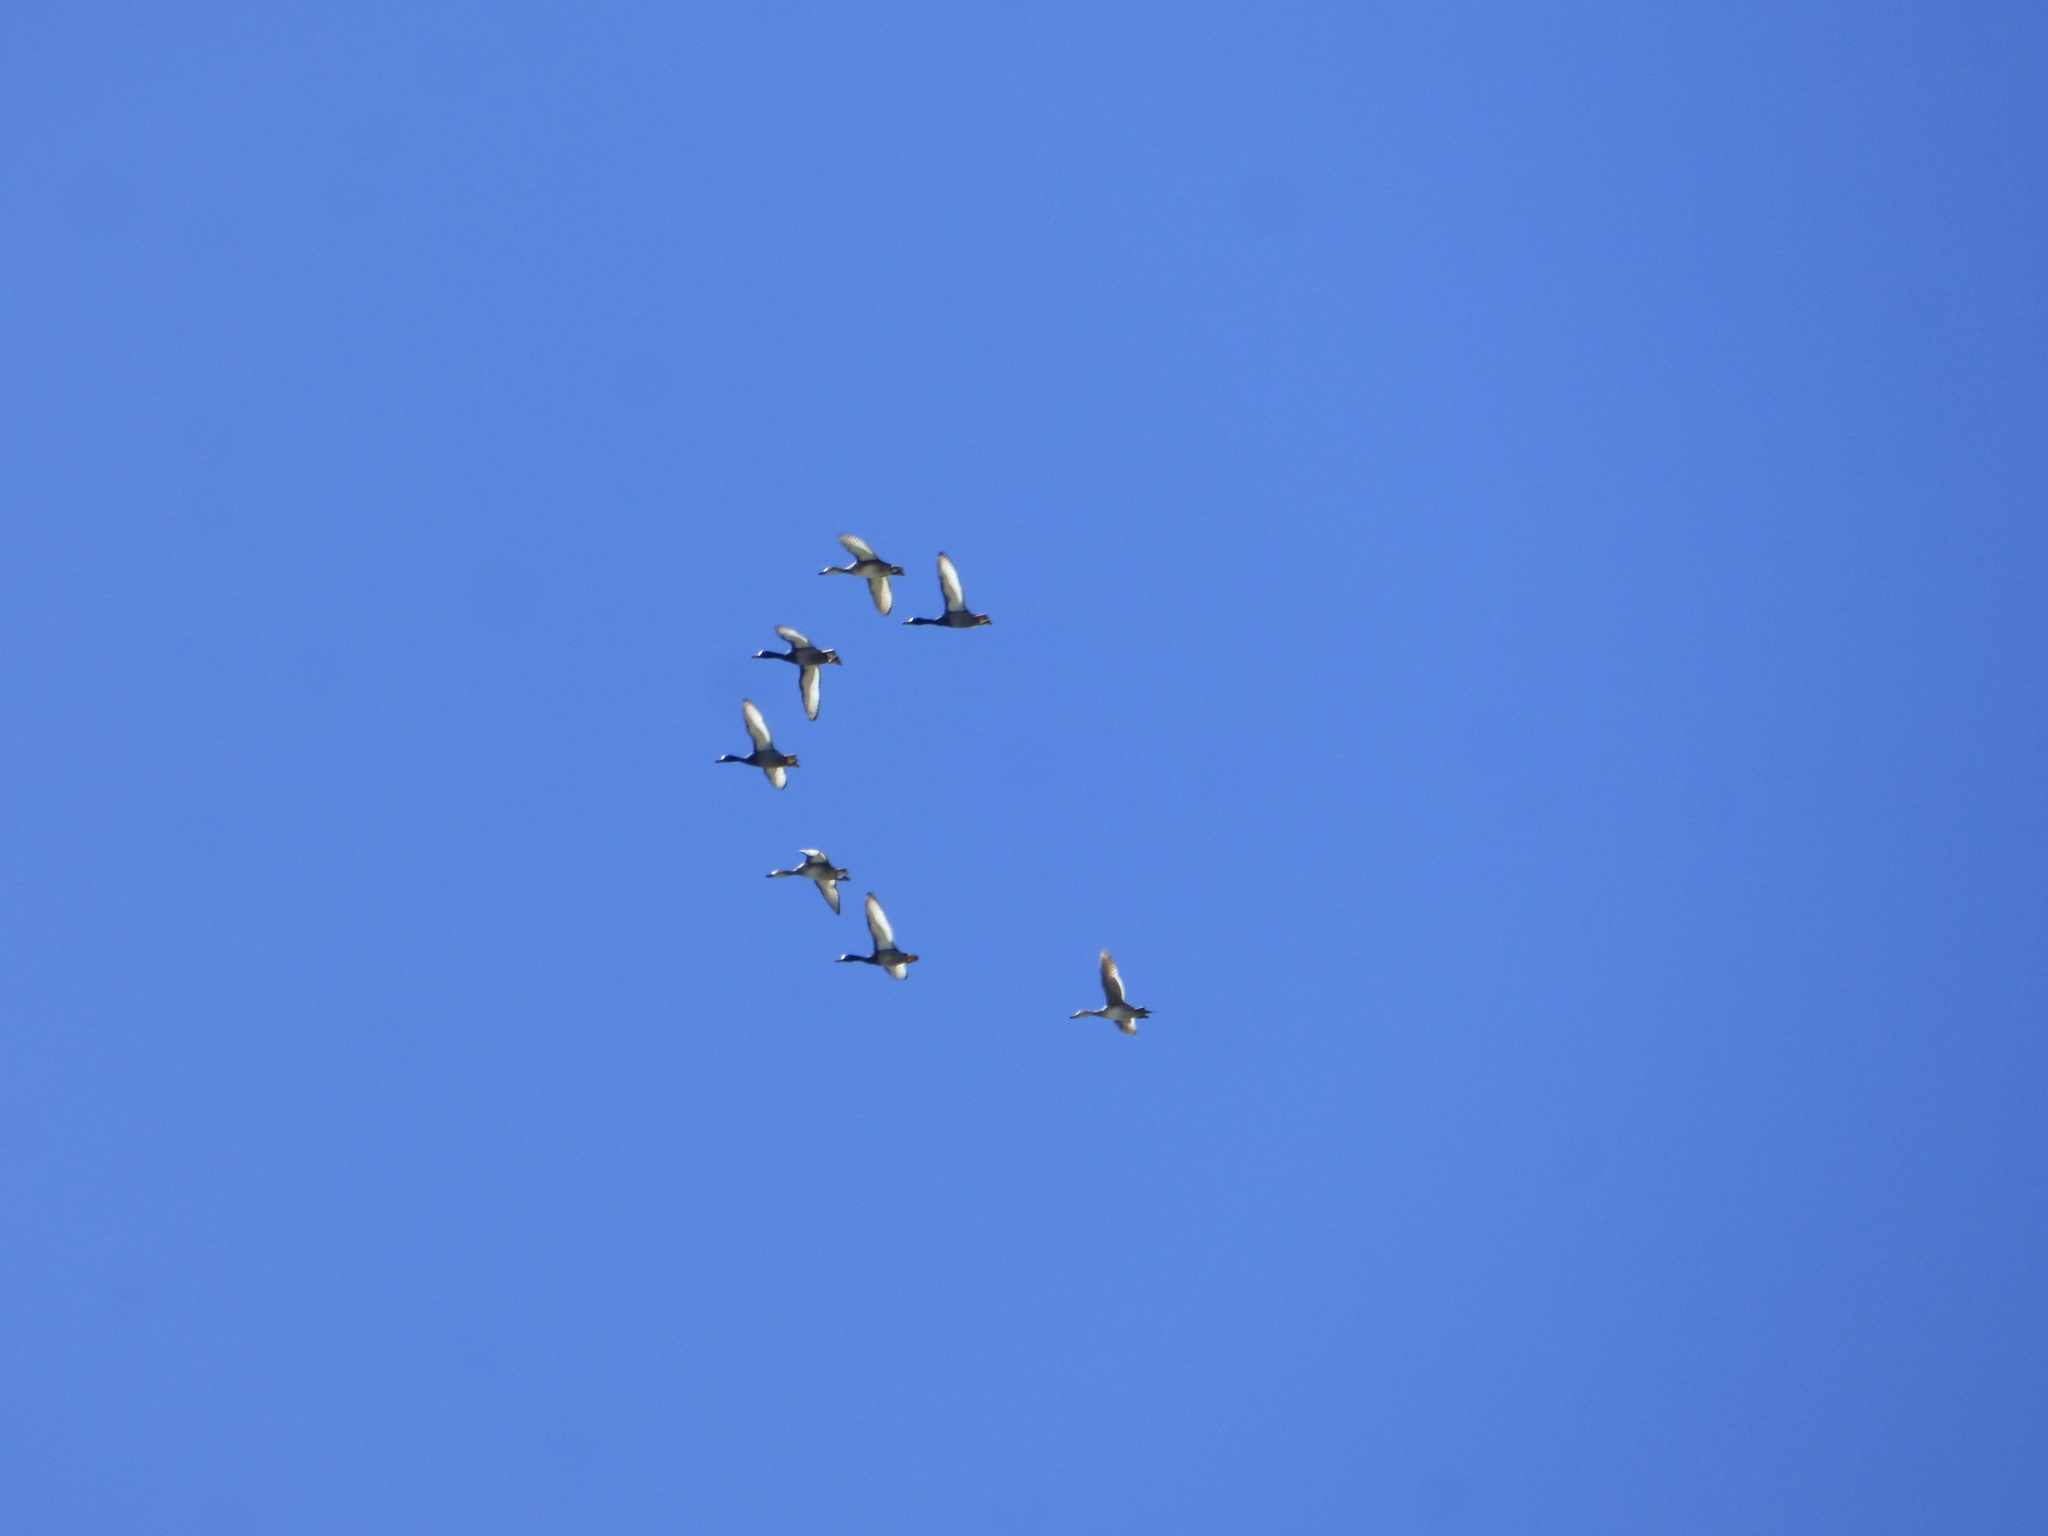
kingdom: Animalia
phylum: Chordata
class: Aves
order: Anseriformes
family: Anatidae
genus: Netta
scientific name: Netta peposaca
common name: Rosy-billed pochard
